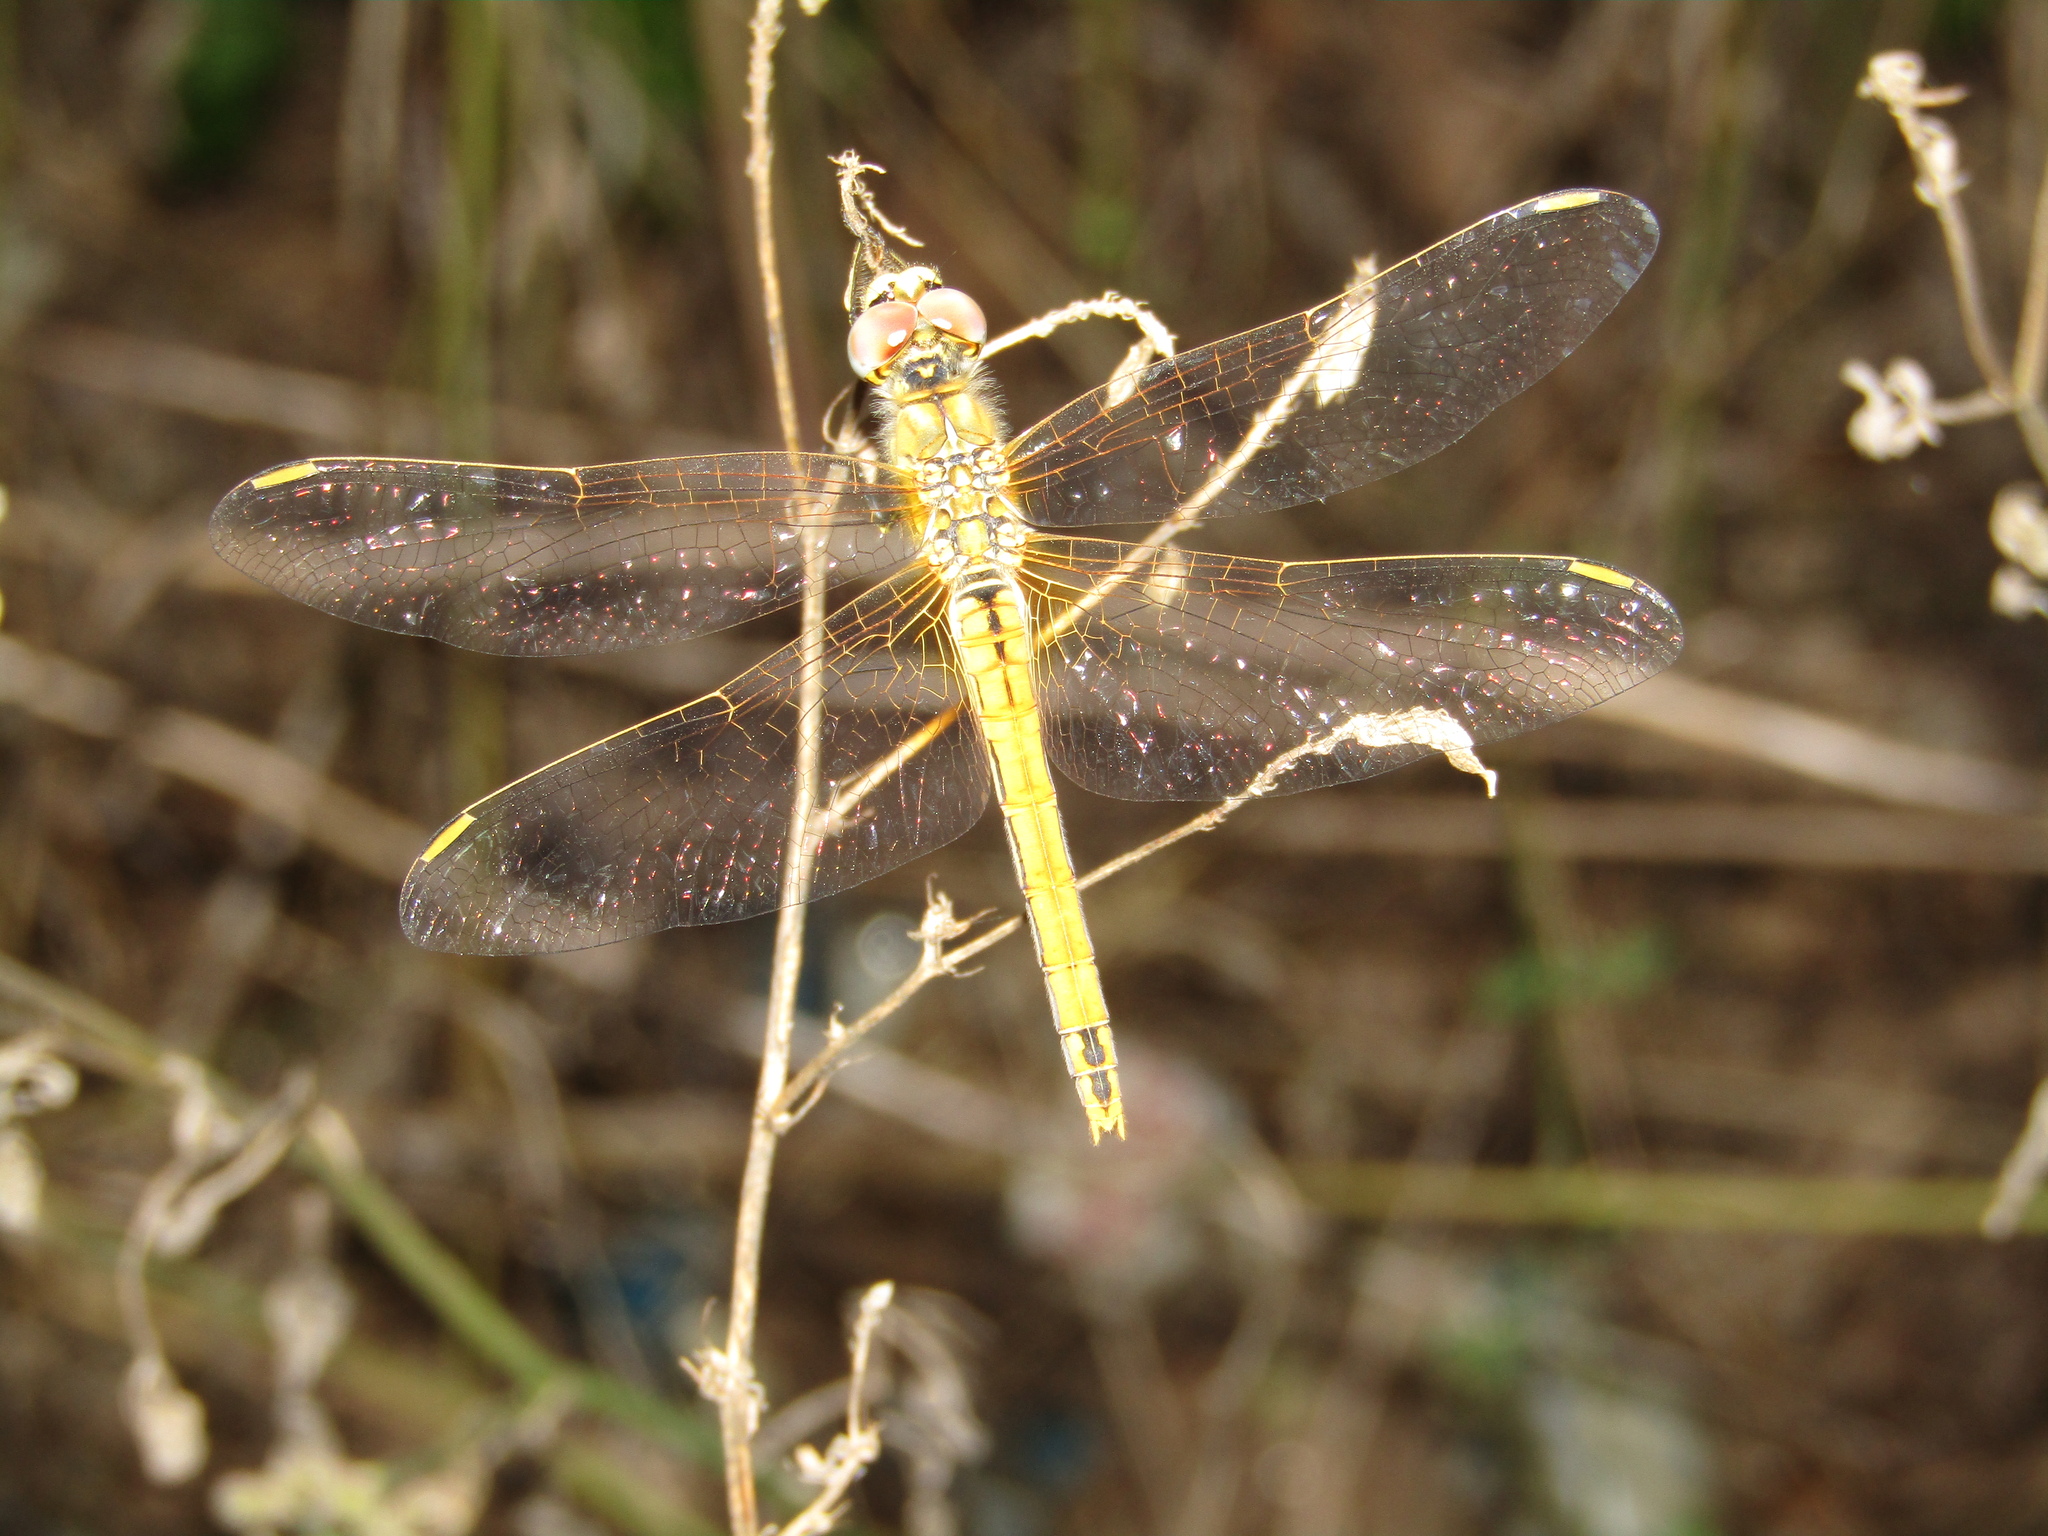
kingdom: Animalia
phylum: Arthropoda
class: Insecta
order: Odonata
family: Libellulidae
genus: Sympetrum
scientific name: Sympetrum fonscolombii
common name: Red-veined darter
